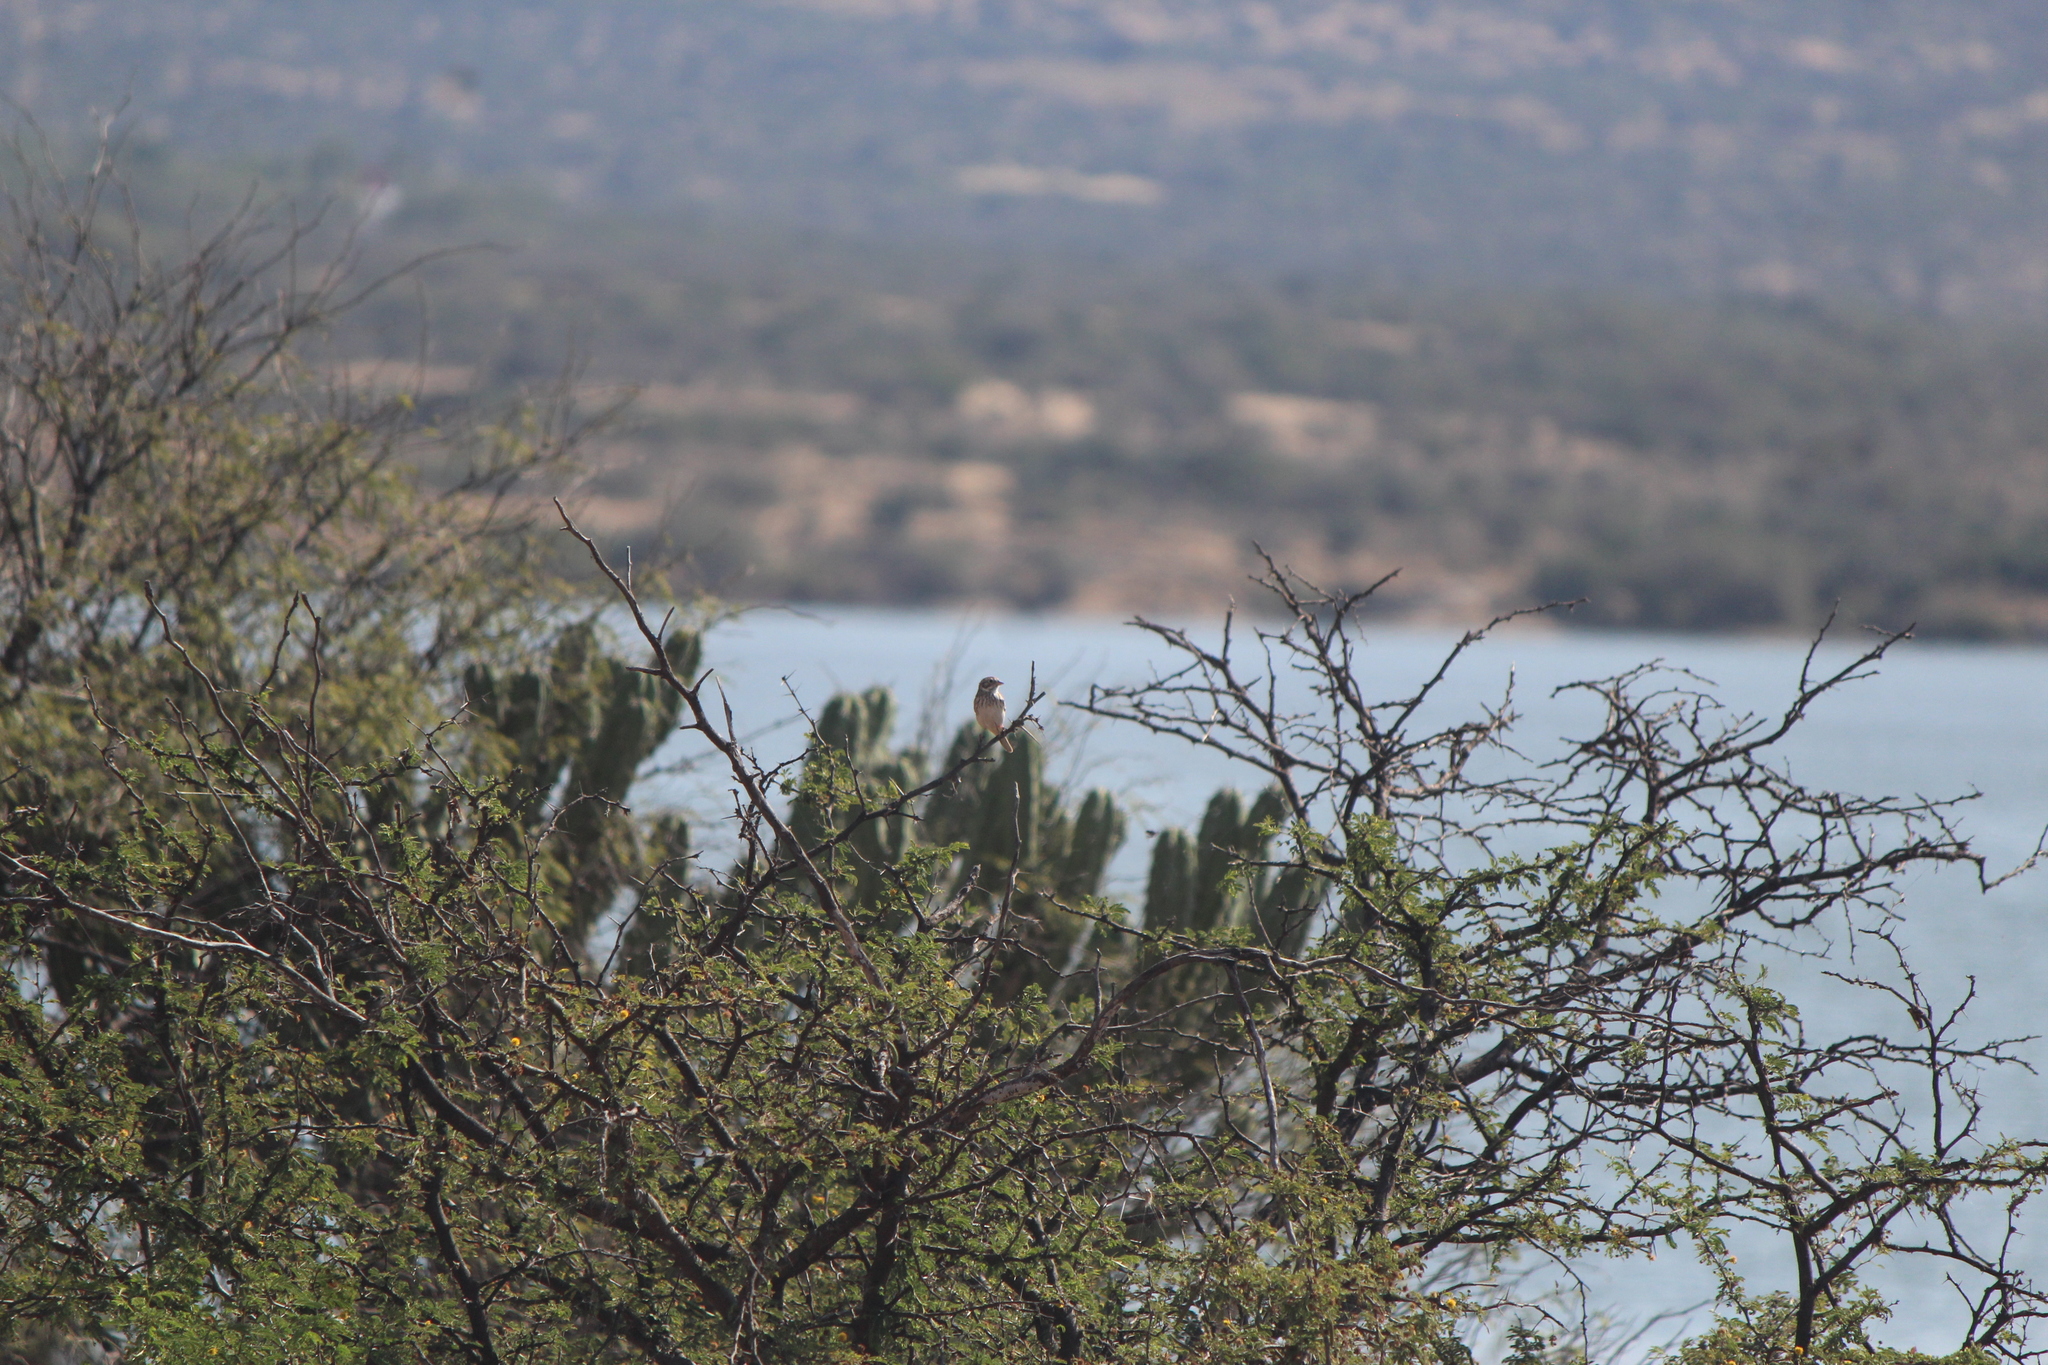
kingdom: Animalia
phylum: Chordata
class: Aves
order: Passeriformes
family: Passerellidae
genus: Pooecetes
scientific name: Pooecetes gramineus
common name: Vesper sparrow
